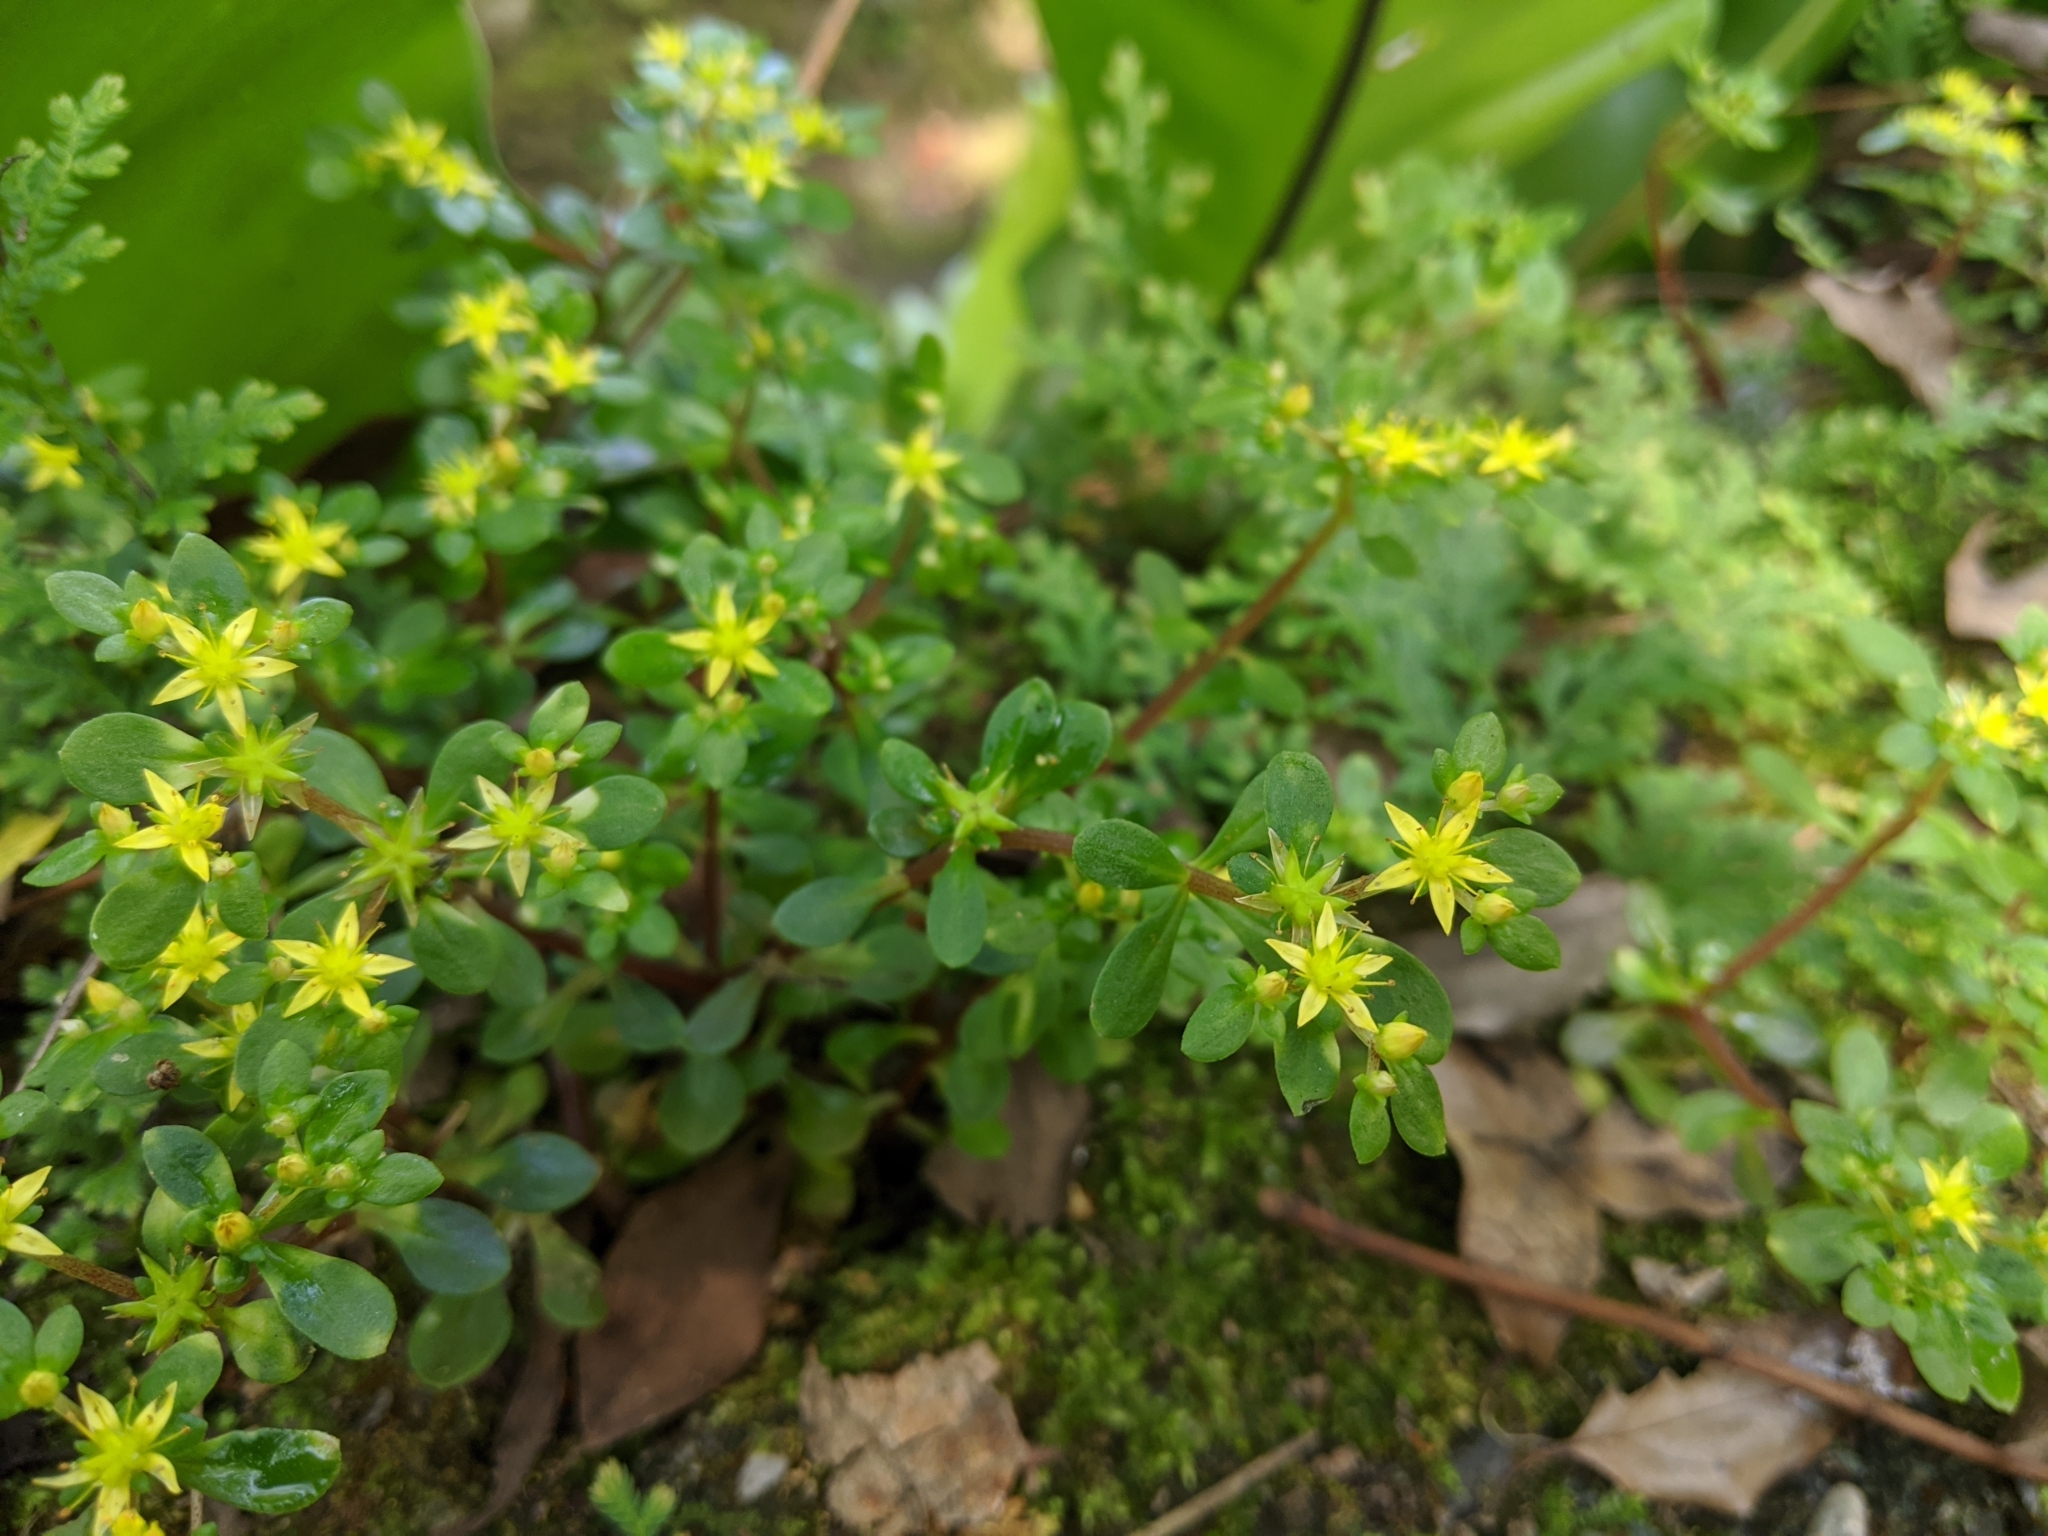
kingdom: Plantae
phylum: Tracheophyta
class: Magnoliopsida
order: Saxifragales
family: Crassulaceae
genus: Sedum
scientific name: Sedum actinocarpum
